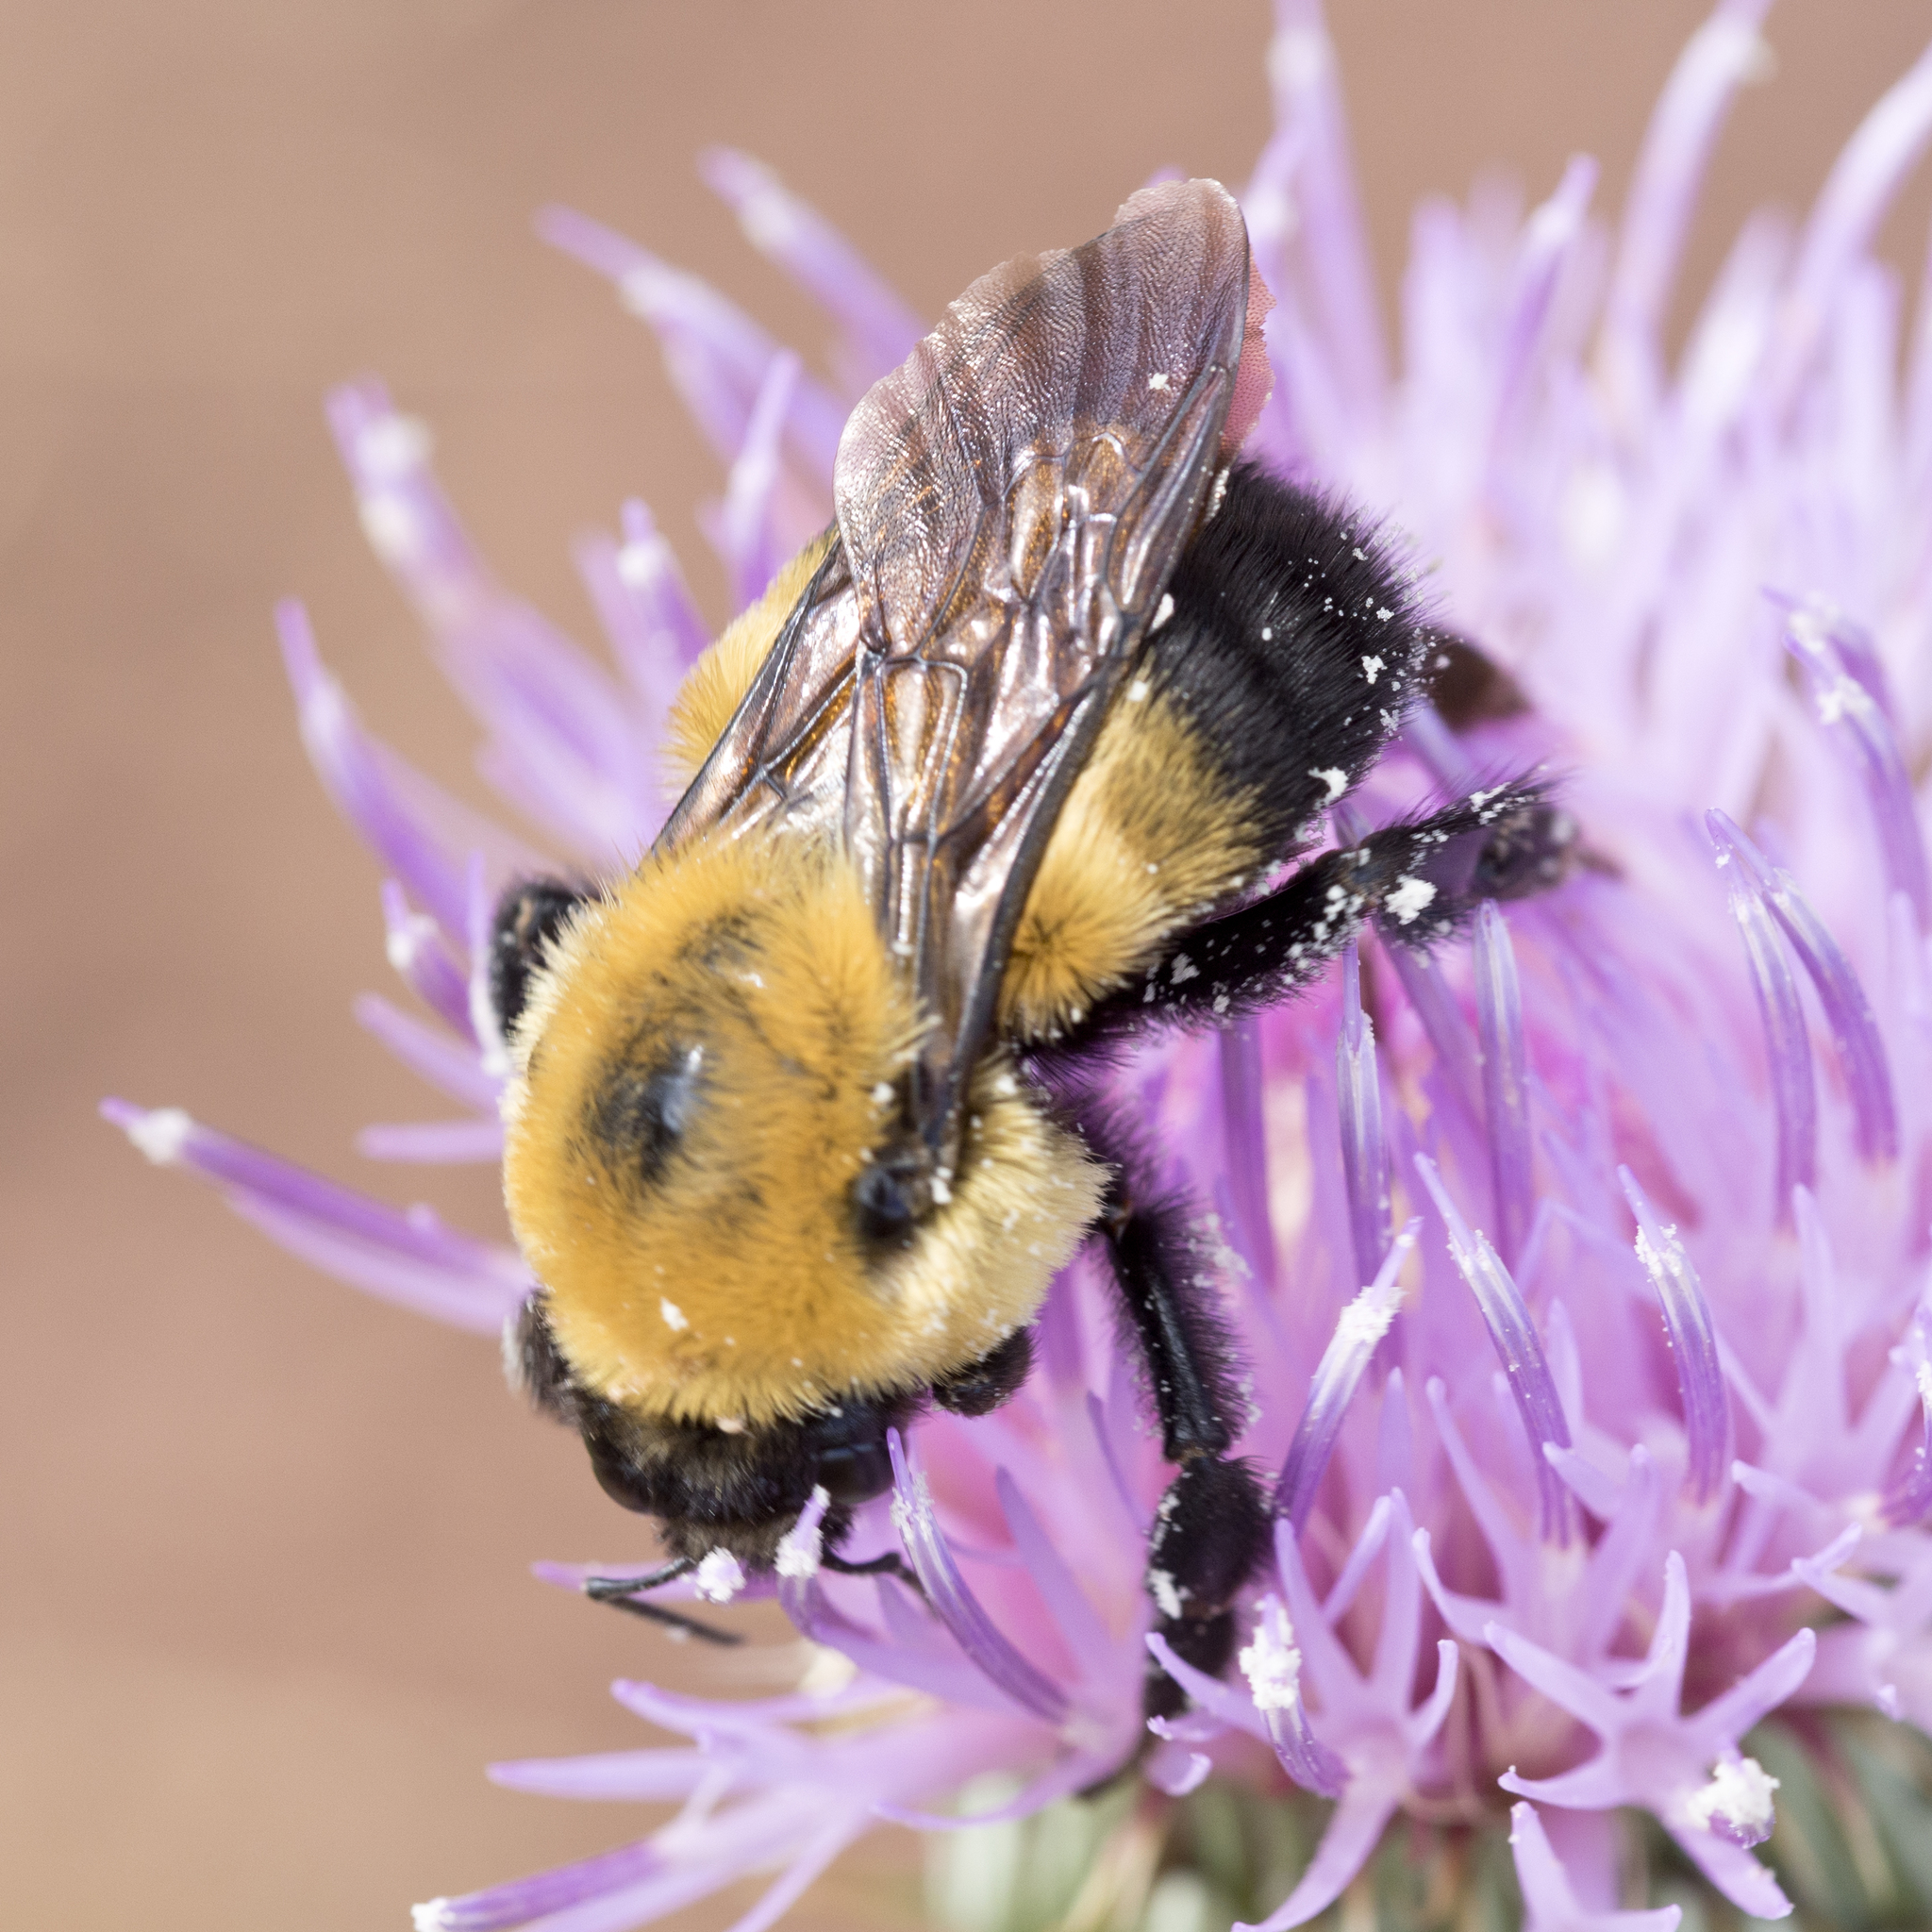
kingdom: Animalia
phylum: Arthropoda
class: Insecta
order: Hymenoptera
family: Apidae
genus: Bombus
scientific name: Bombus griseocollis
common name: Brown-belted bumble bee
